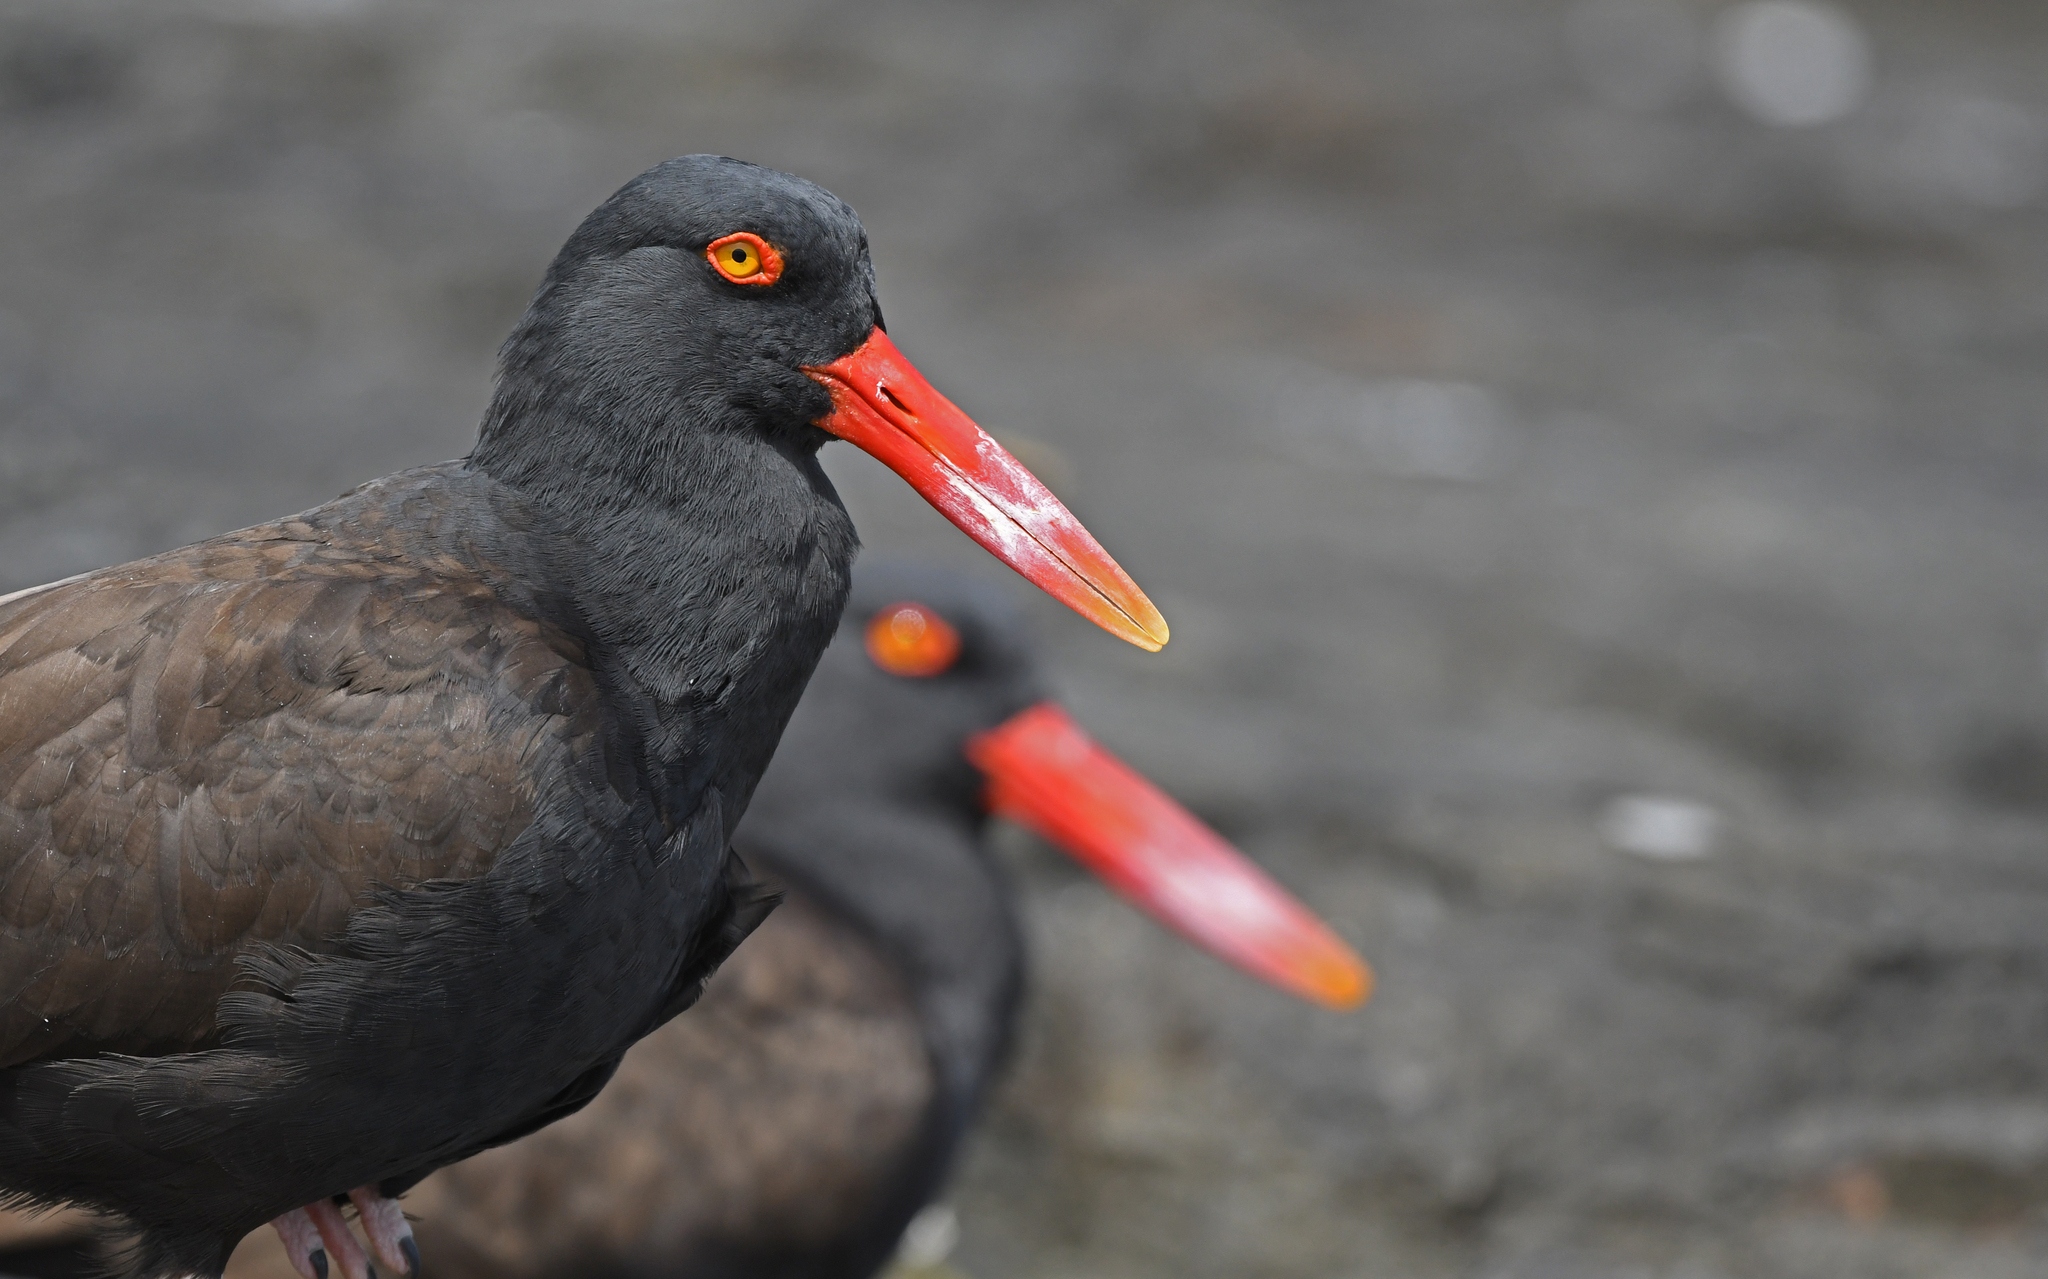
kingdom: Animalia
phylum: Chordata
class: Aves
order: Charadriiformes
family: Haematopodidae
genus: Haematopus
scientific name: Haematopus ater
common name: Blackish oystercatcher
